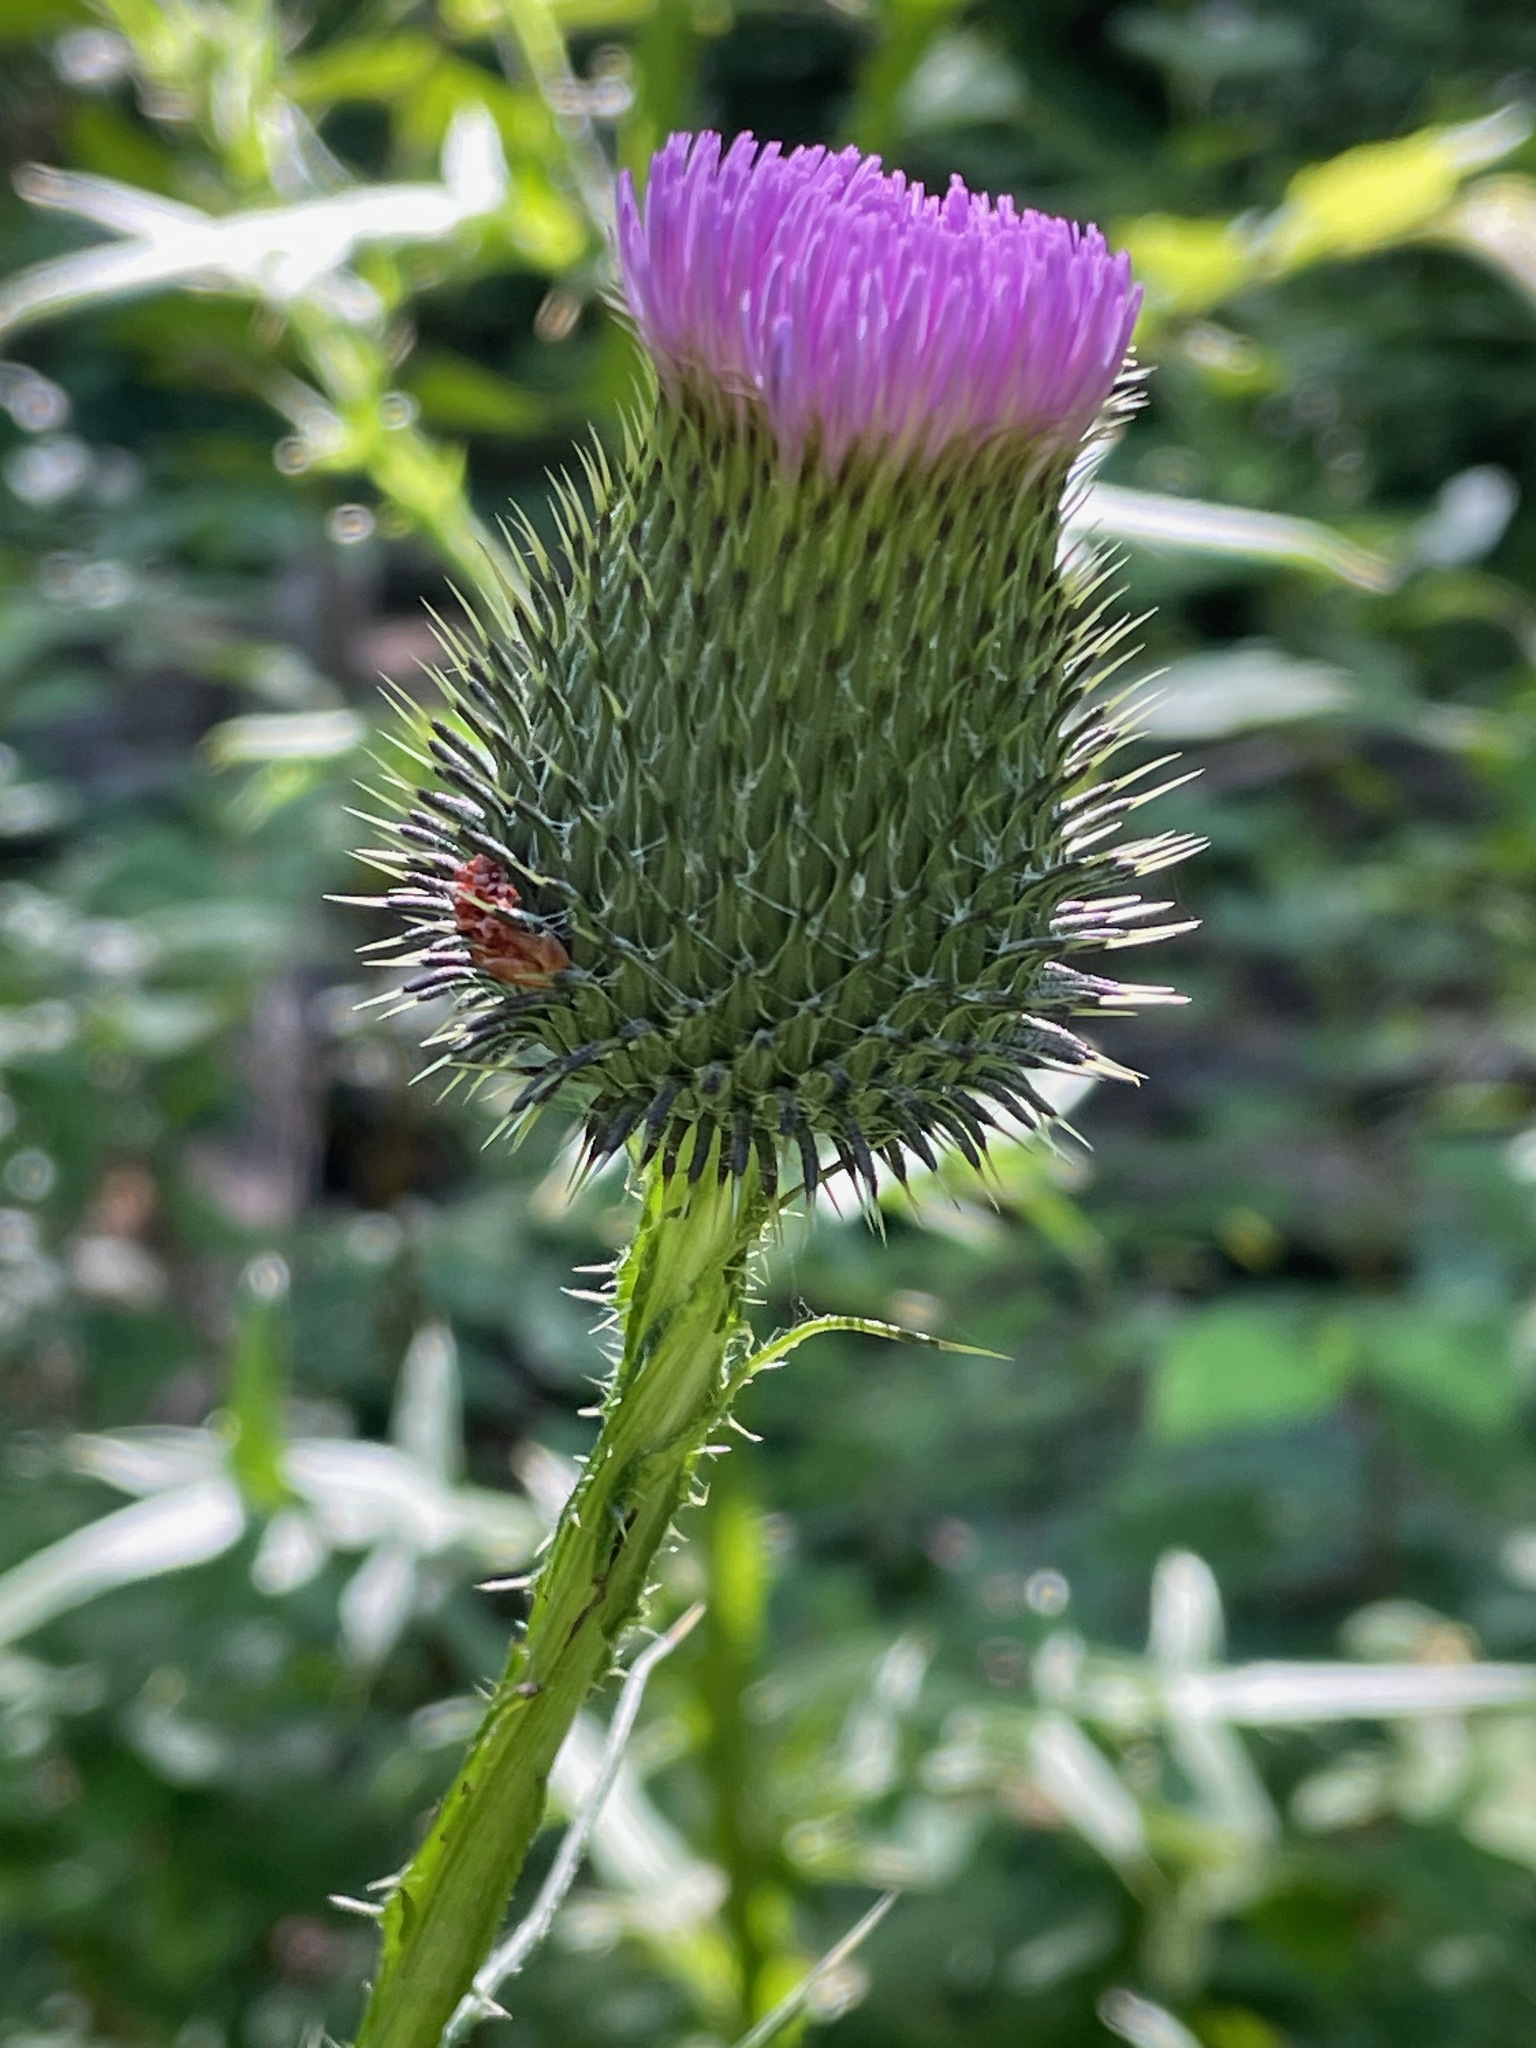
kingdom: Plantae
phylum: Tracheophyta
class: Magnoliopsida
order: Asterales
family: Asteraceae
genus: Cirsium
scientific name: Cirsium vulgare
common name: Bull thistle
